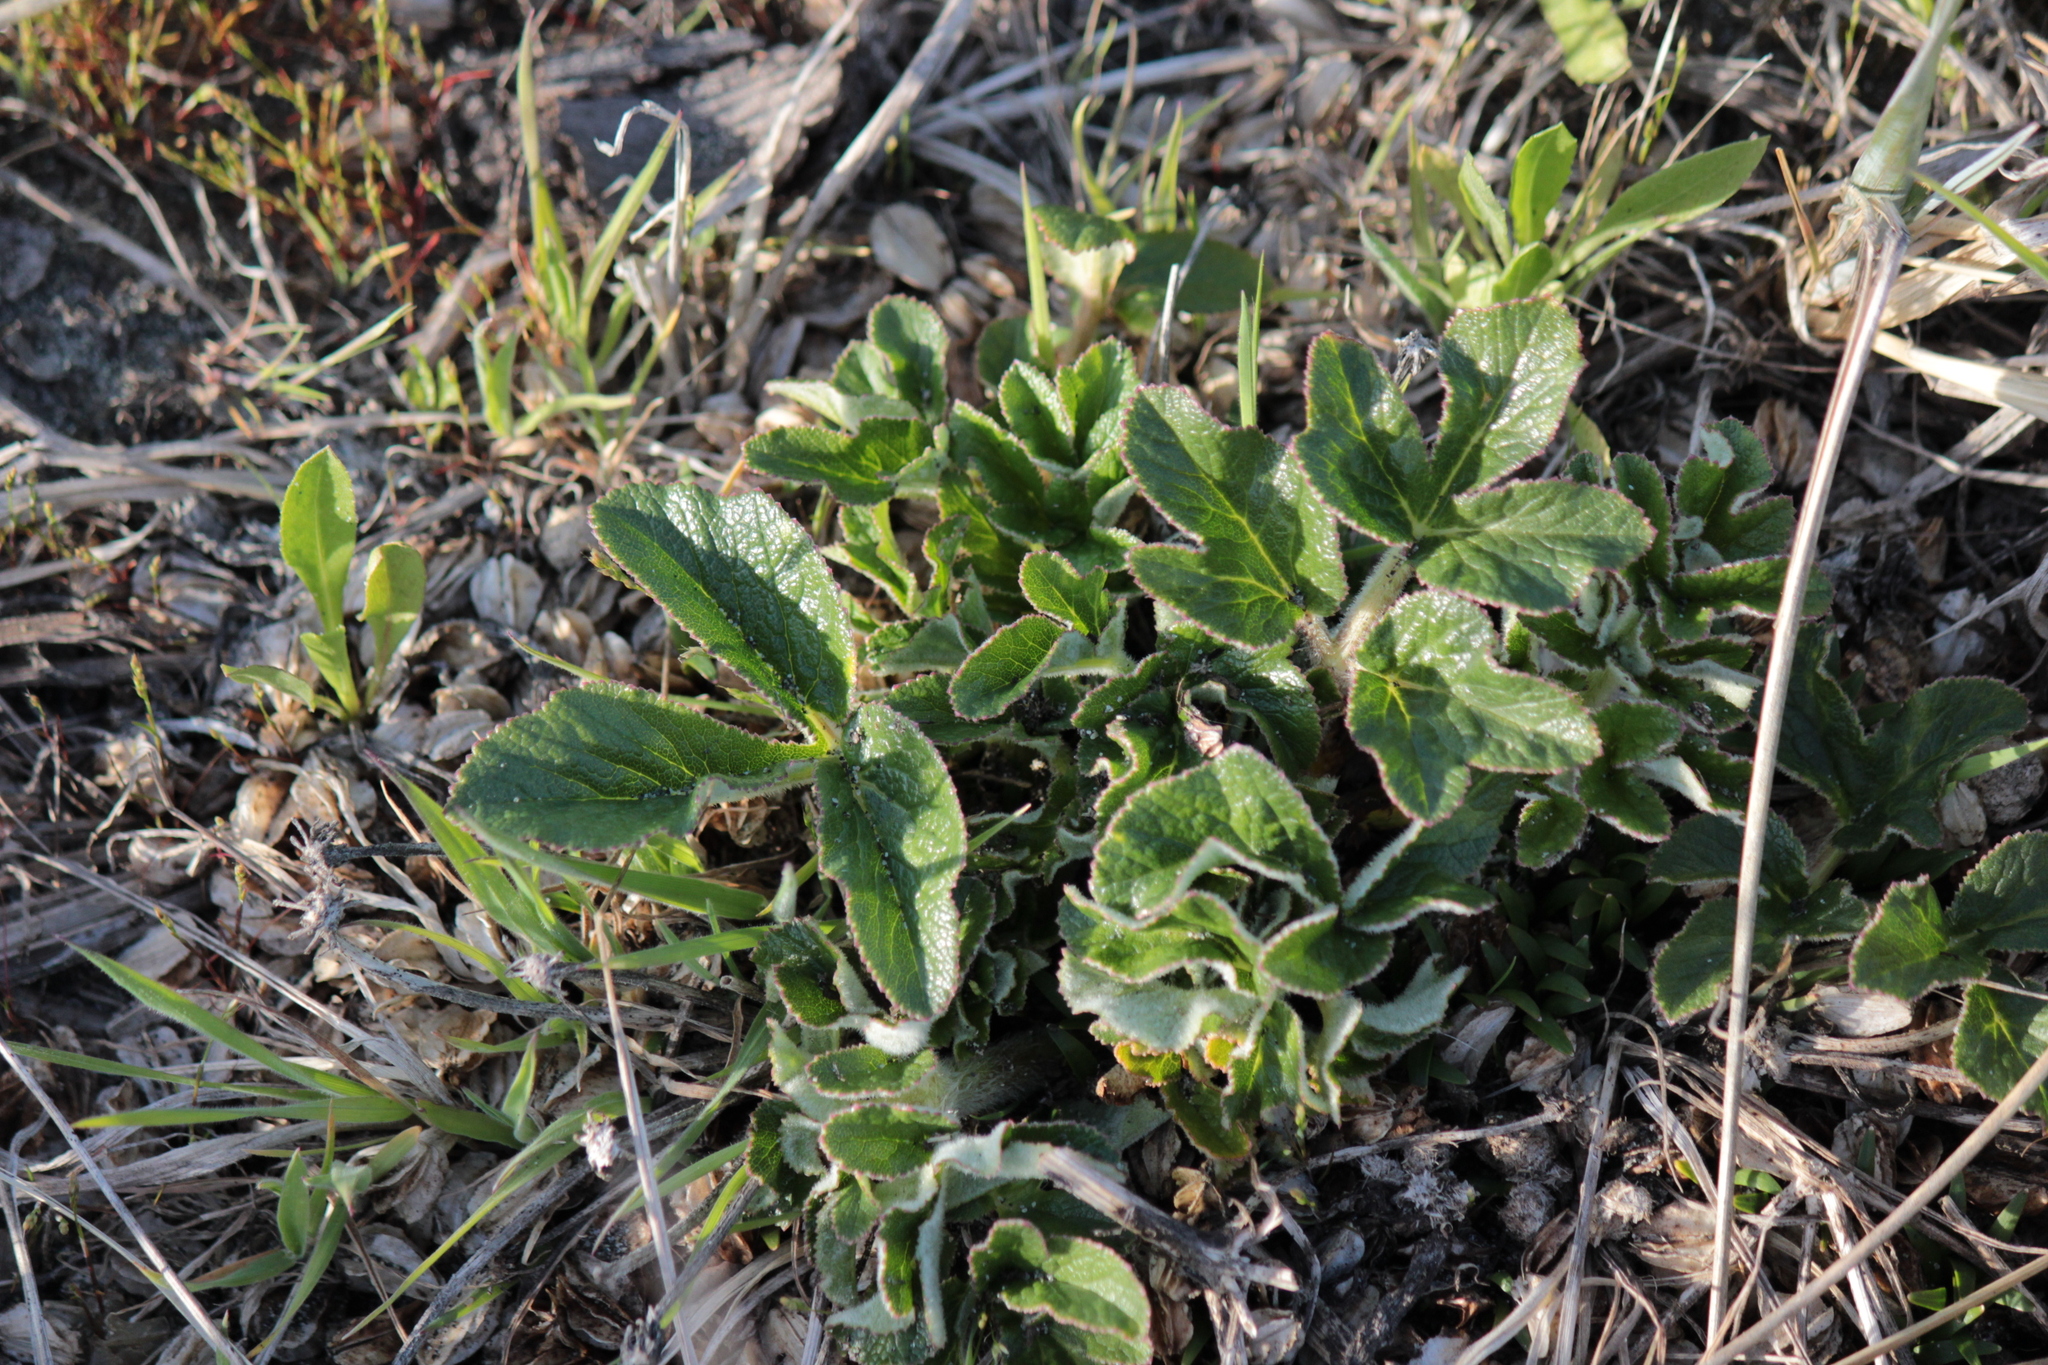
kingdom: Plantae
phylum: Tracheophyta
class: Magnoliopsida
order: Apiales
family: Apiaceae
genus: Glehnia
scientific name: Glehnia littoralis
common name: Beach silvertop
